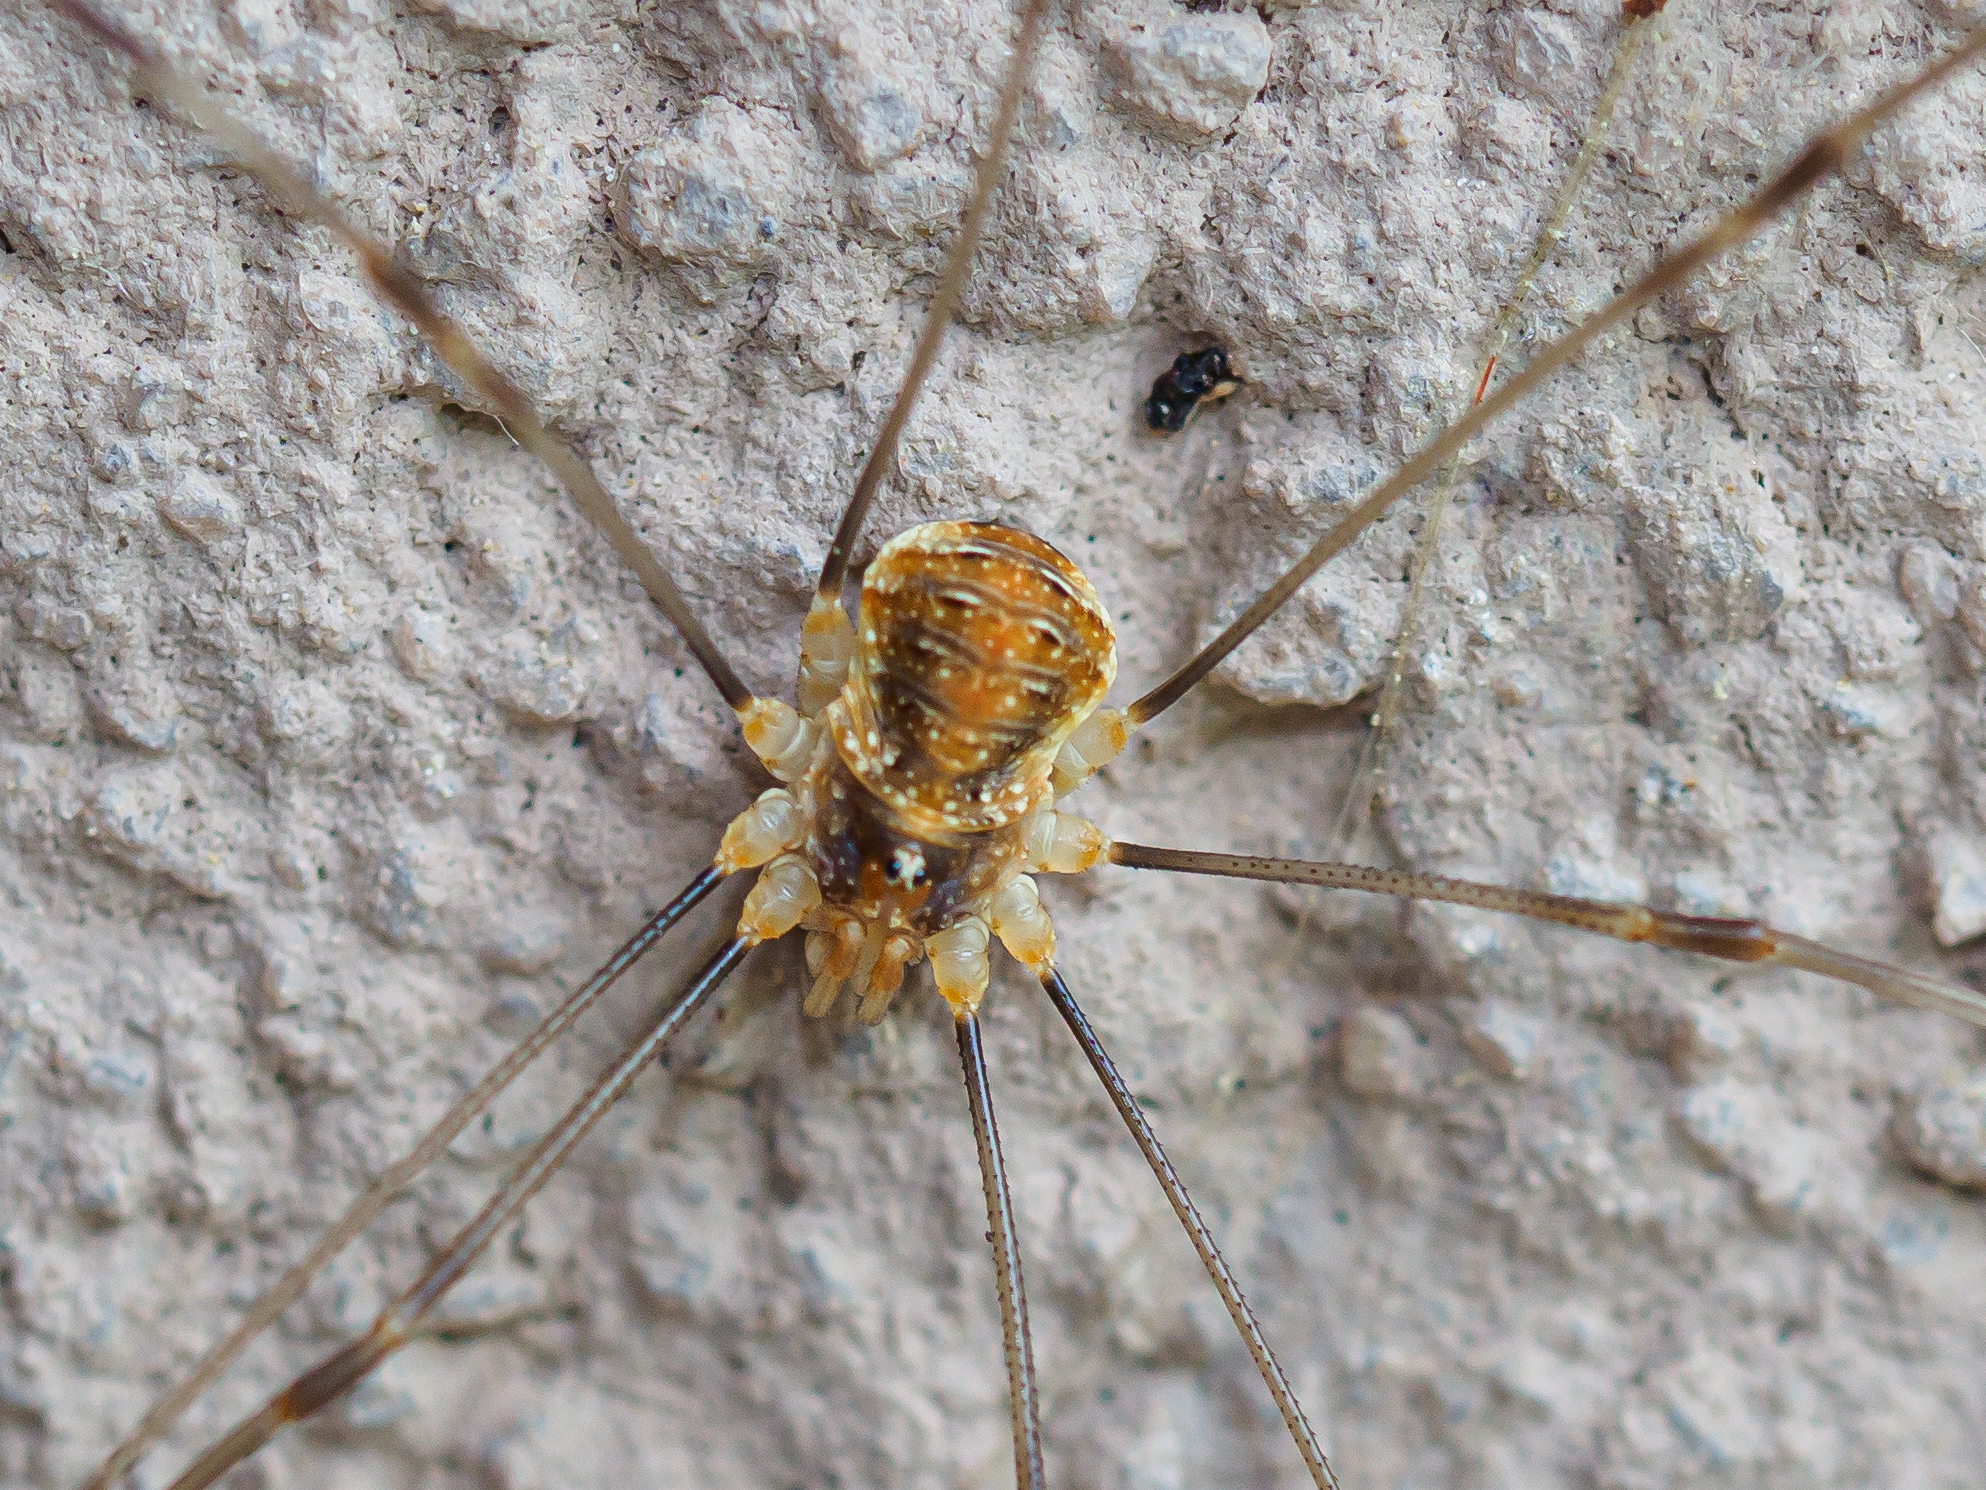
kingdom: Animalia
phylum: Arthropoda
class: Arachnida
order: Opiliones
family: Phalangiidae
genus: Opilio
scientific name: Opilio canestrinii
